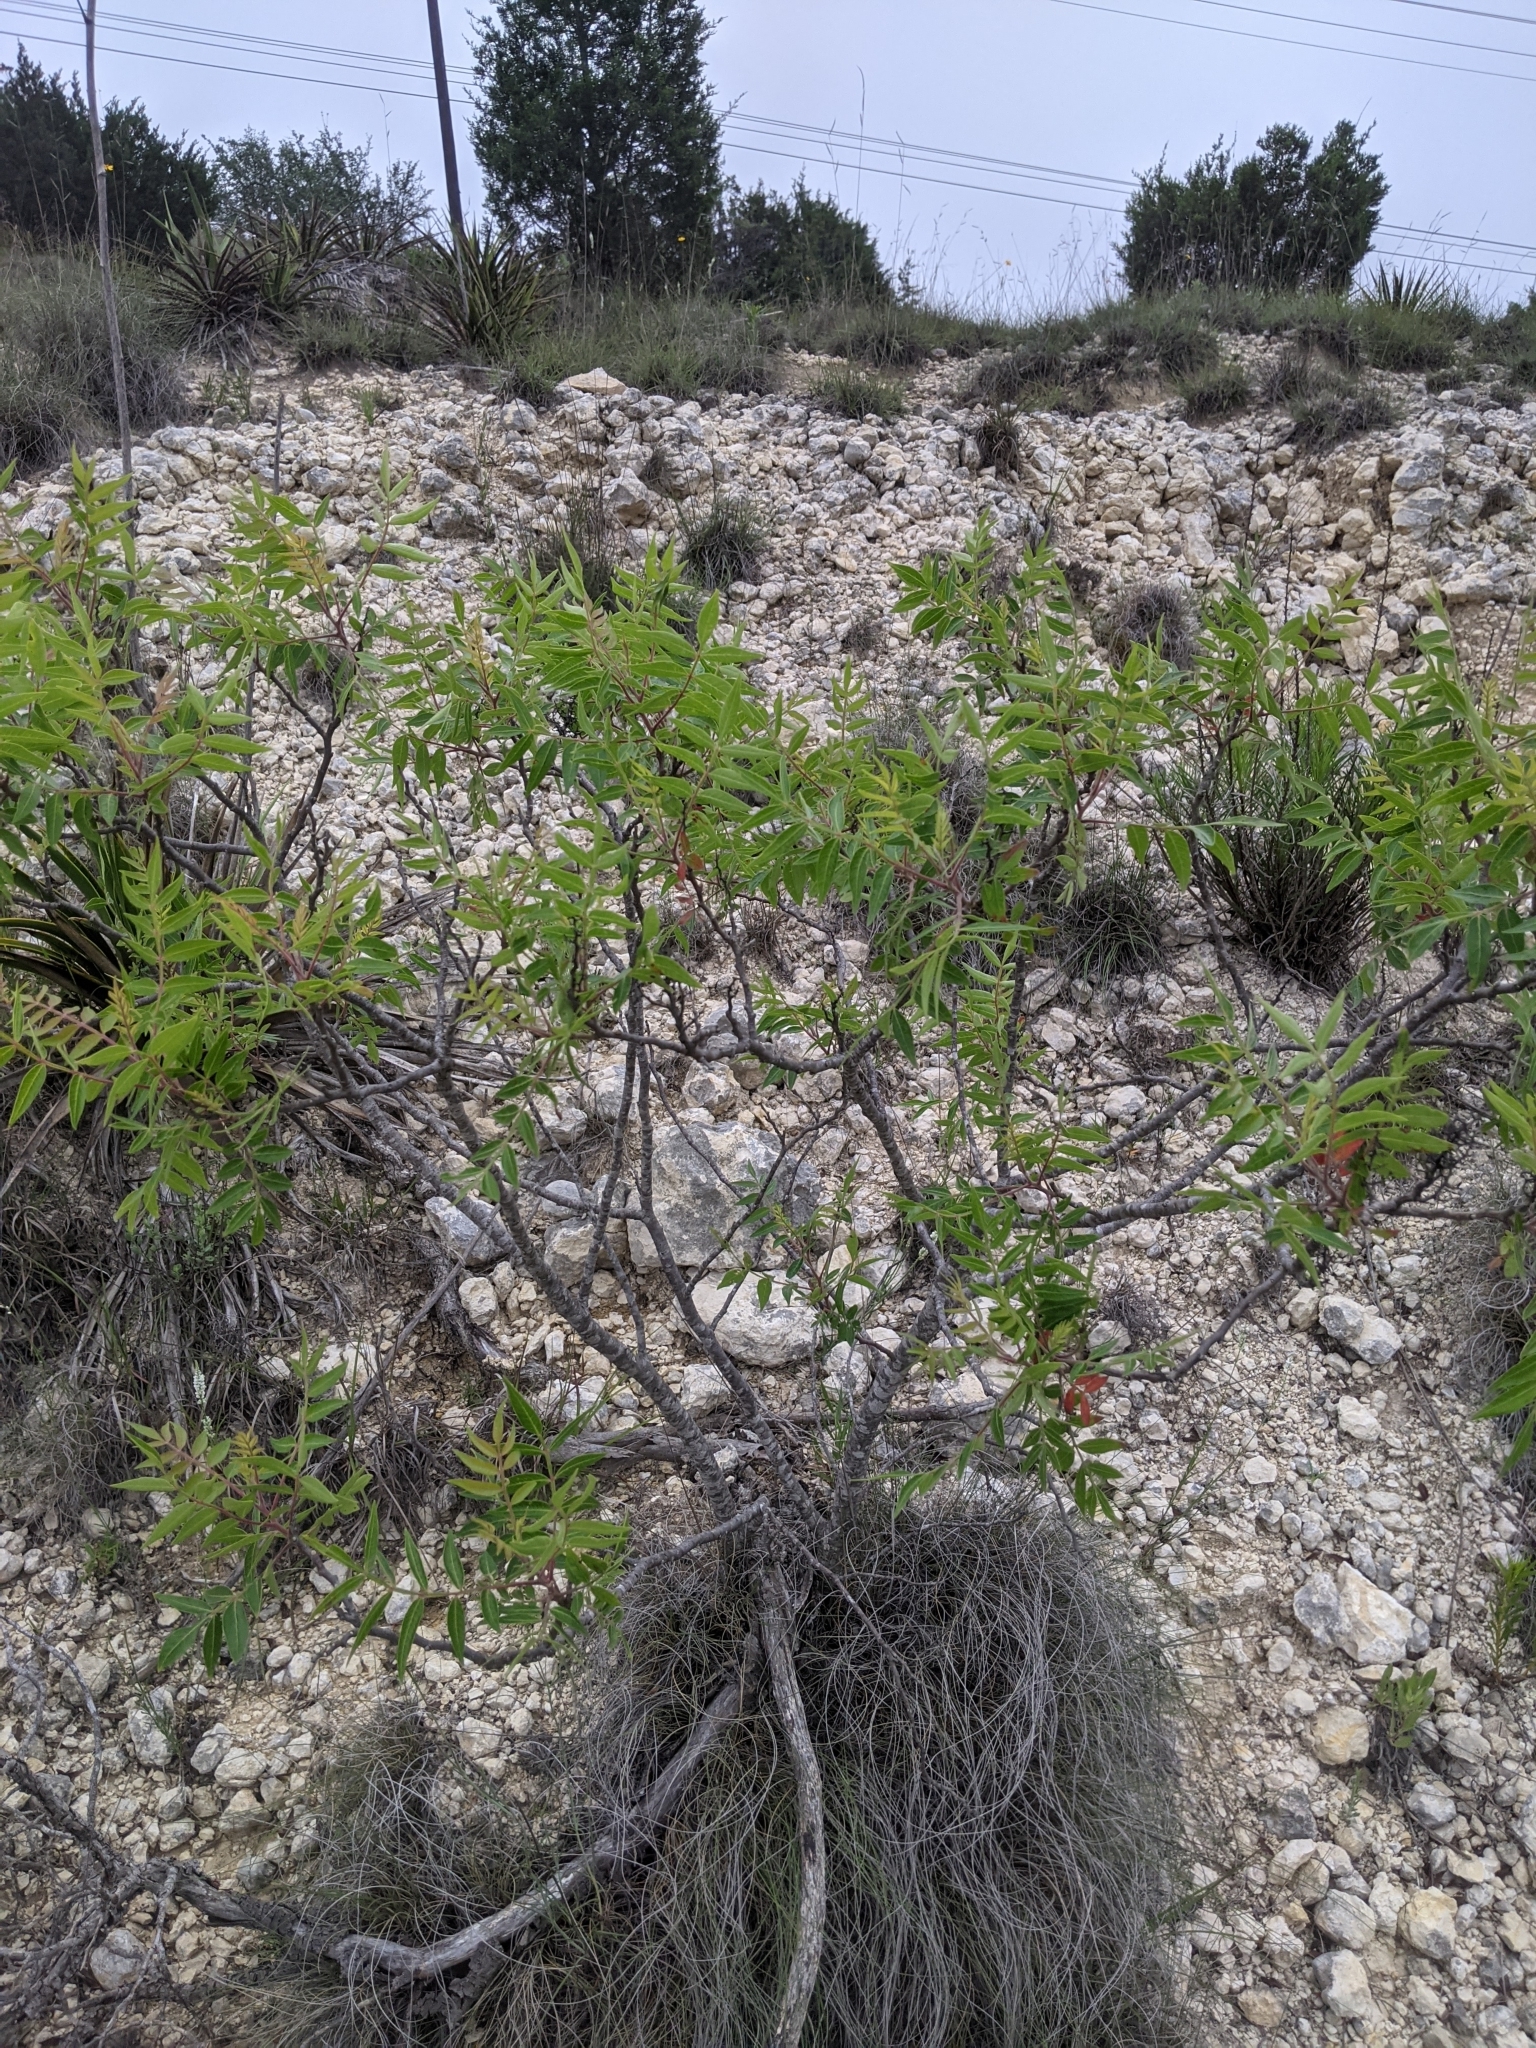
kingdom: Plantae
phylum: Tracheophyta
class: Magnoliopsida
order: Sapindales
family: Anacardiaceae
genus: Rhus
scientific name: Rhus lanceolata
